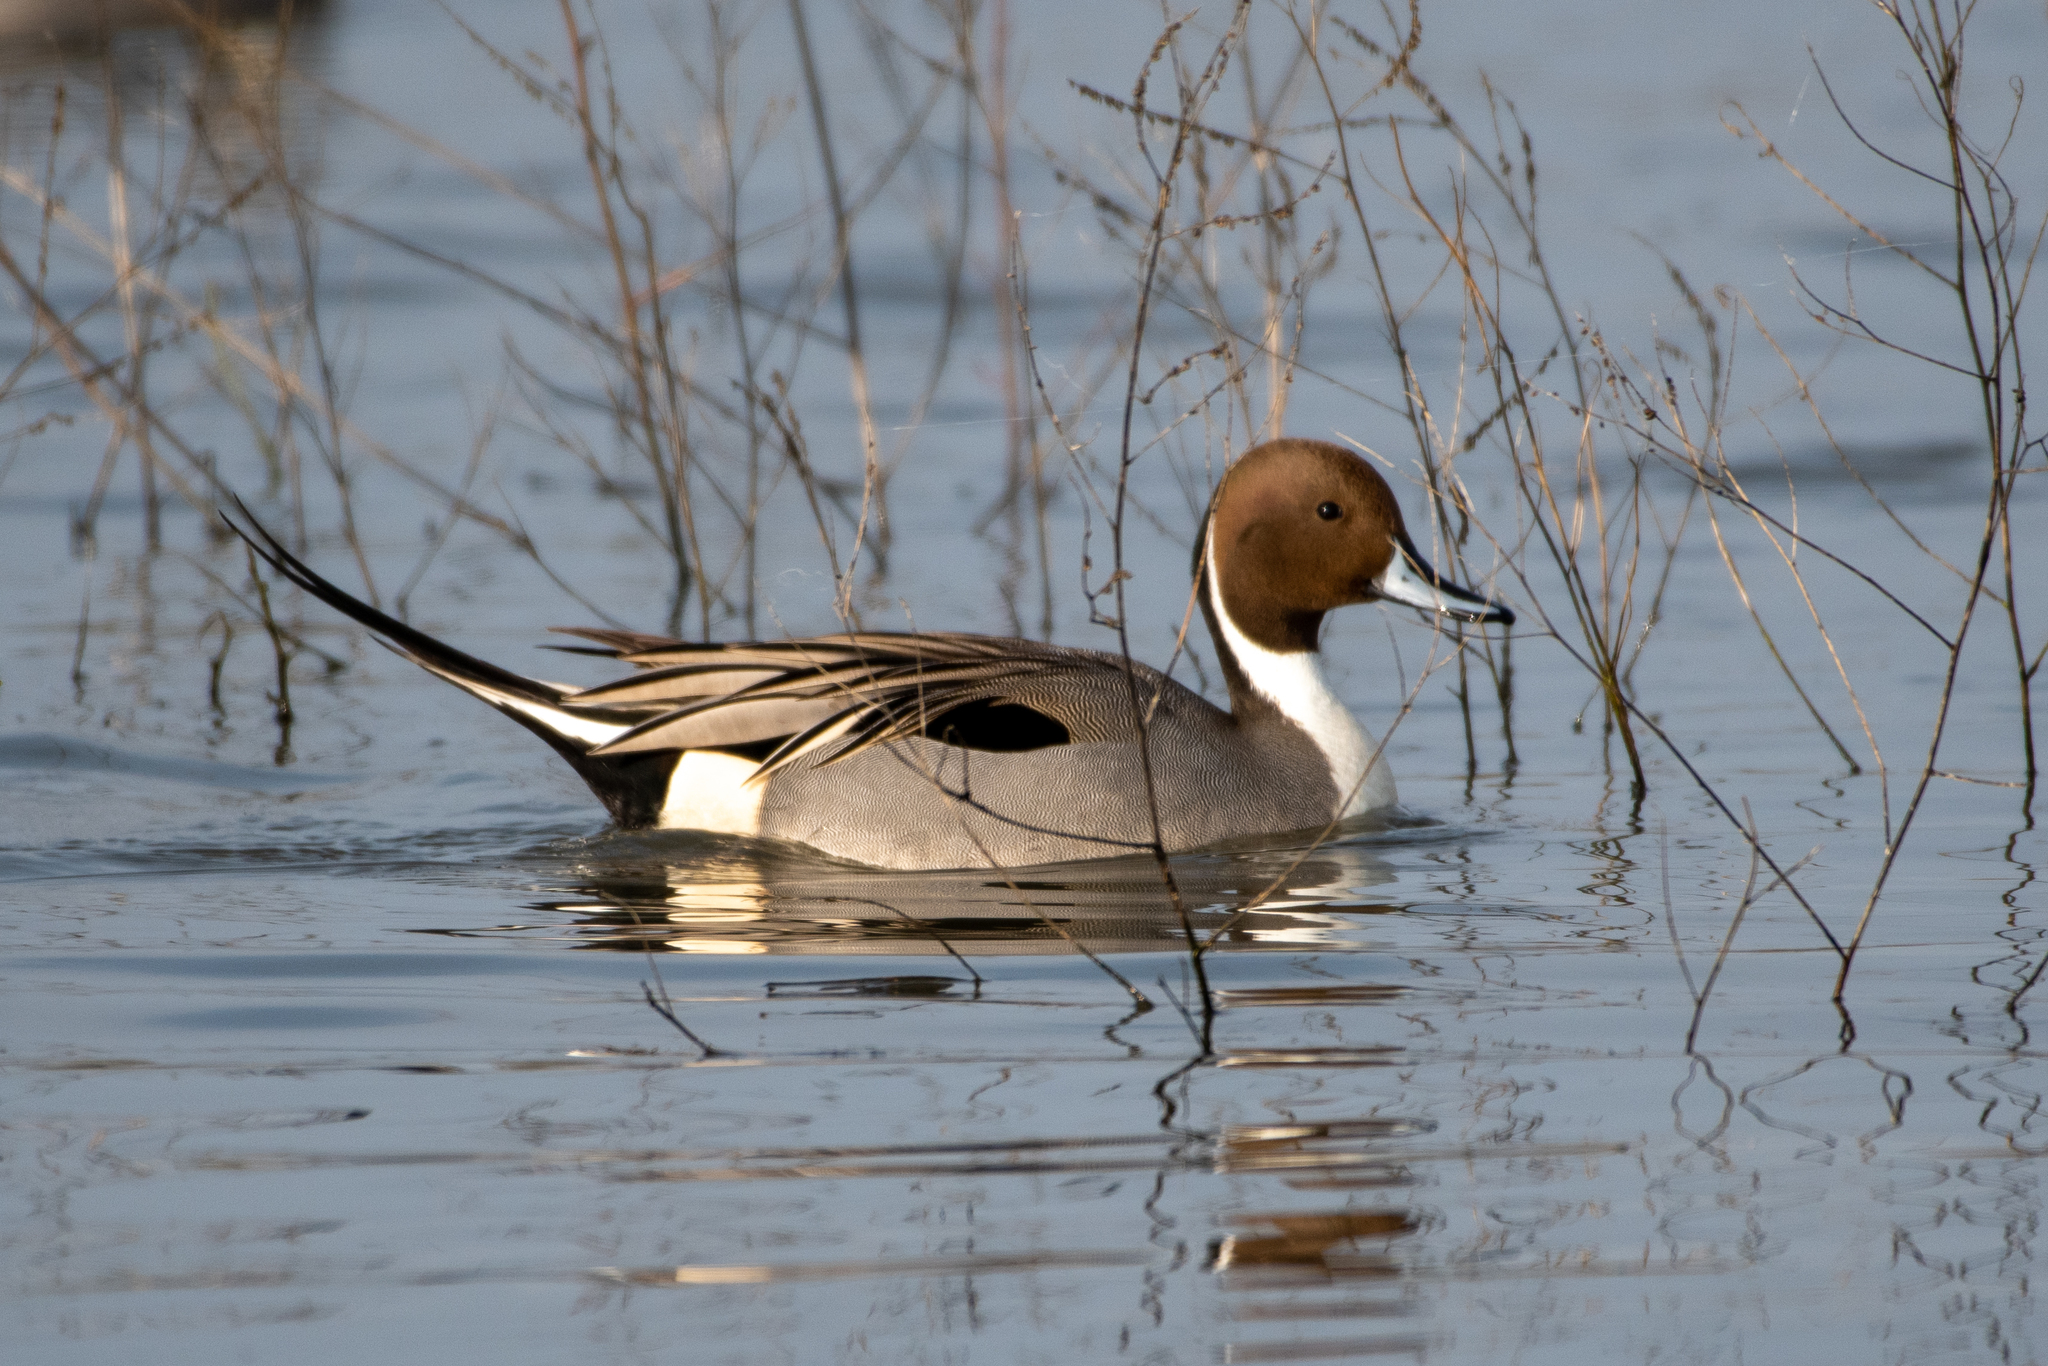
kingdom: Animalia
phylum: Chordata
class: Aves
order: Anseriformes
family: Anatidae
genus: Anas
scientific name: Anas acuta
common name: Northern pintail
